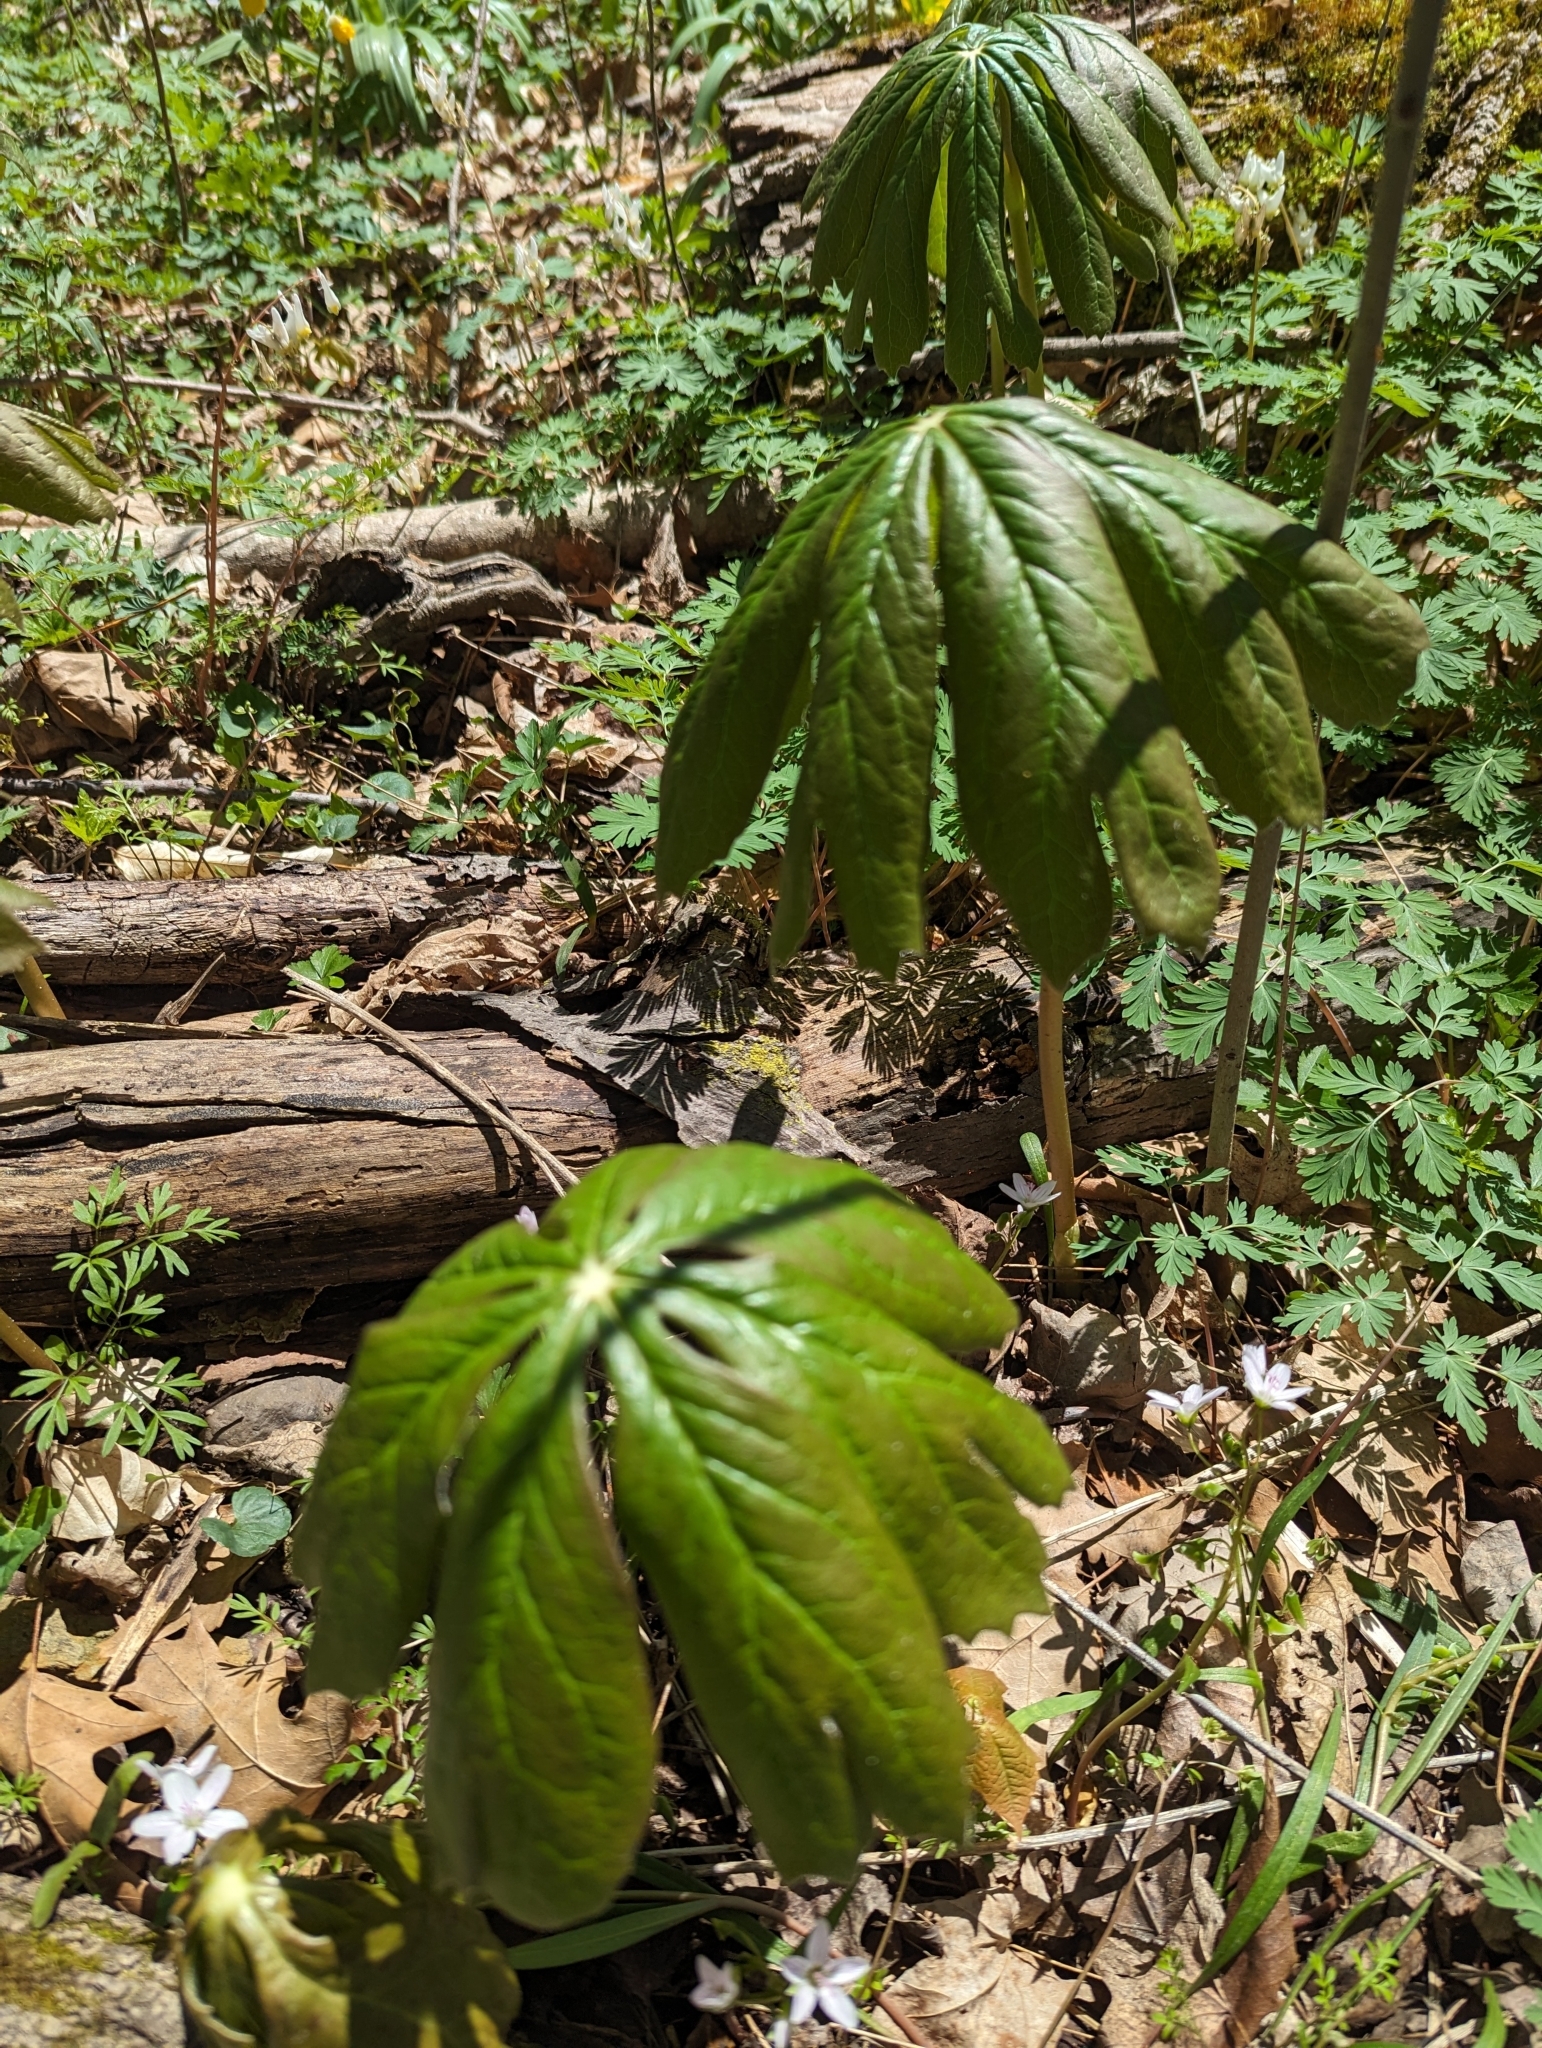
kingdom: Plantae
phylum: Tracheophyta
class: Magnoliopsida
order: Ranunculales
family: Berberidaceae
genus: Podophyllum
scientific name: Podophyllum peltatum
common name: Wild mandrake
